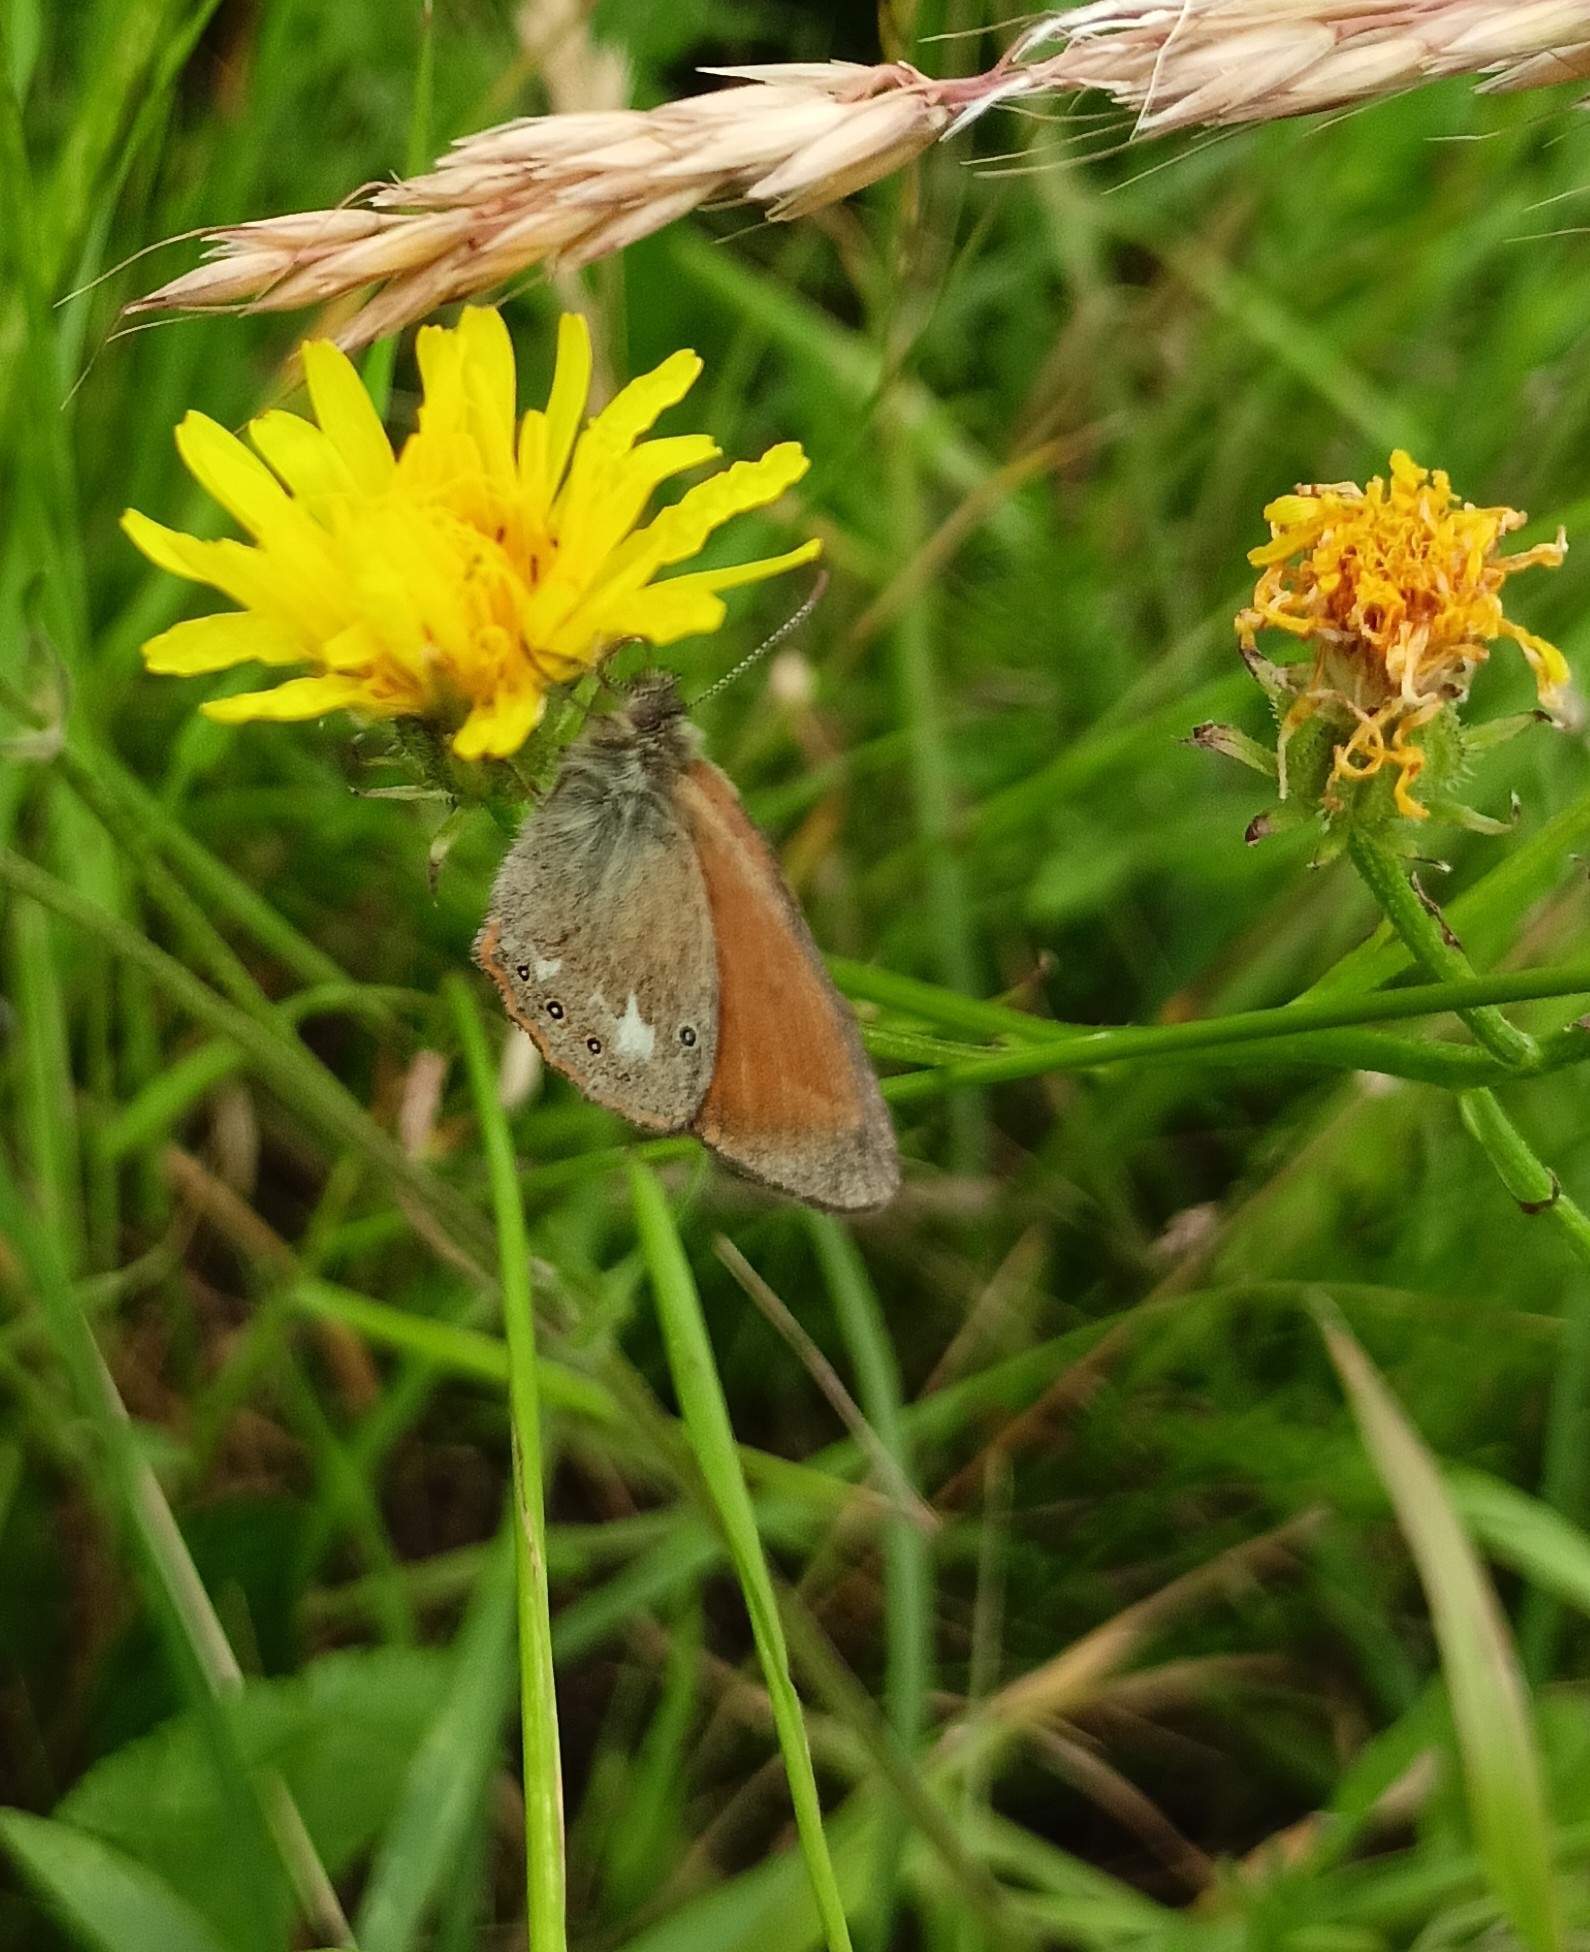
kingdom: Animalia
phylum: Arthropoda
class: Insecta
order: Lepidoptera
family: Nymphalidae
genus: Coenonympha
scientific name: Coenonympha iphis
